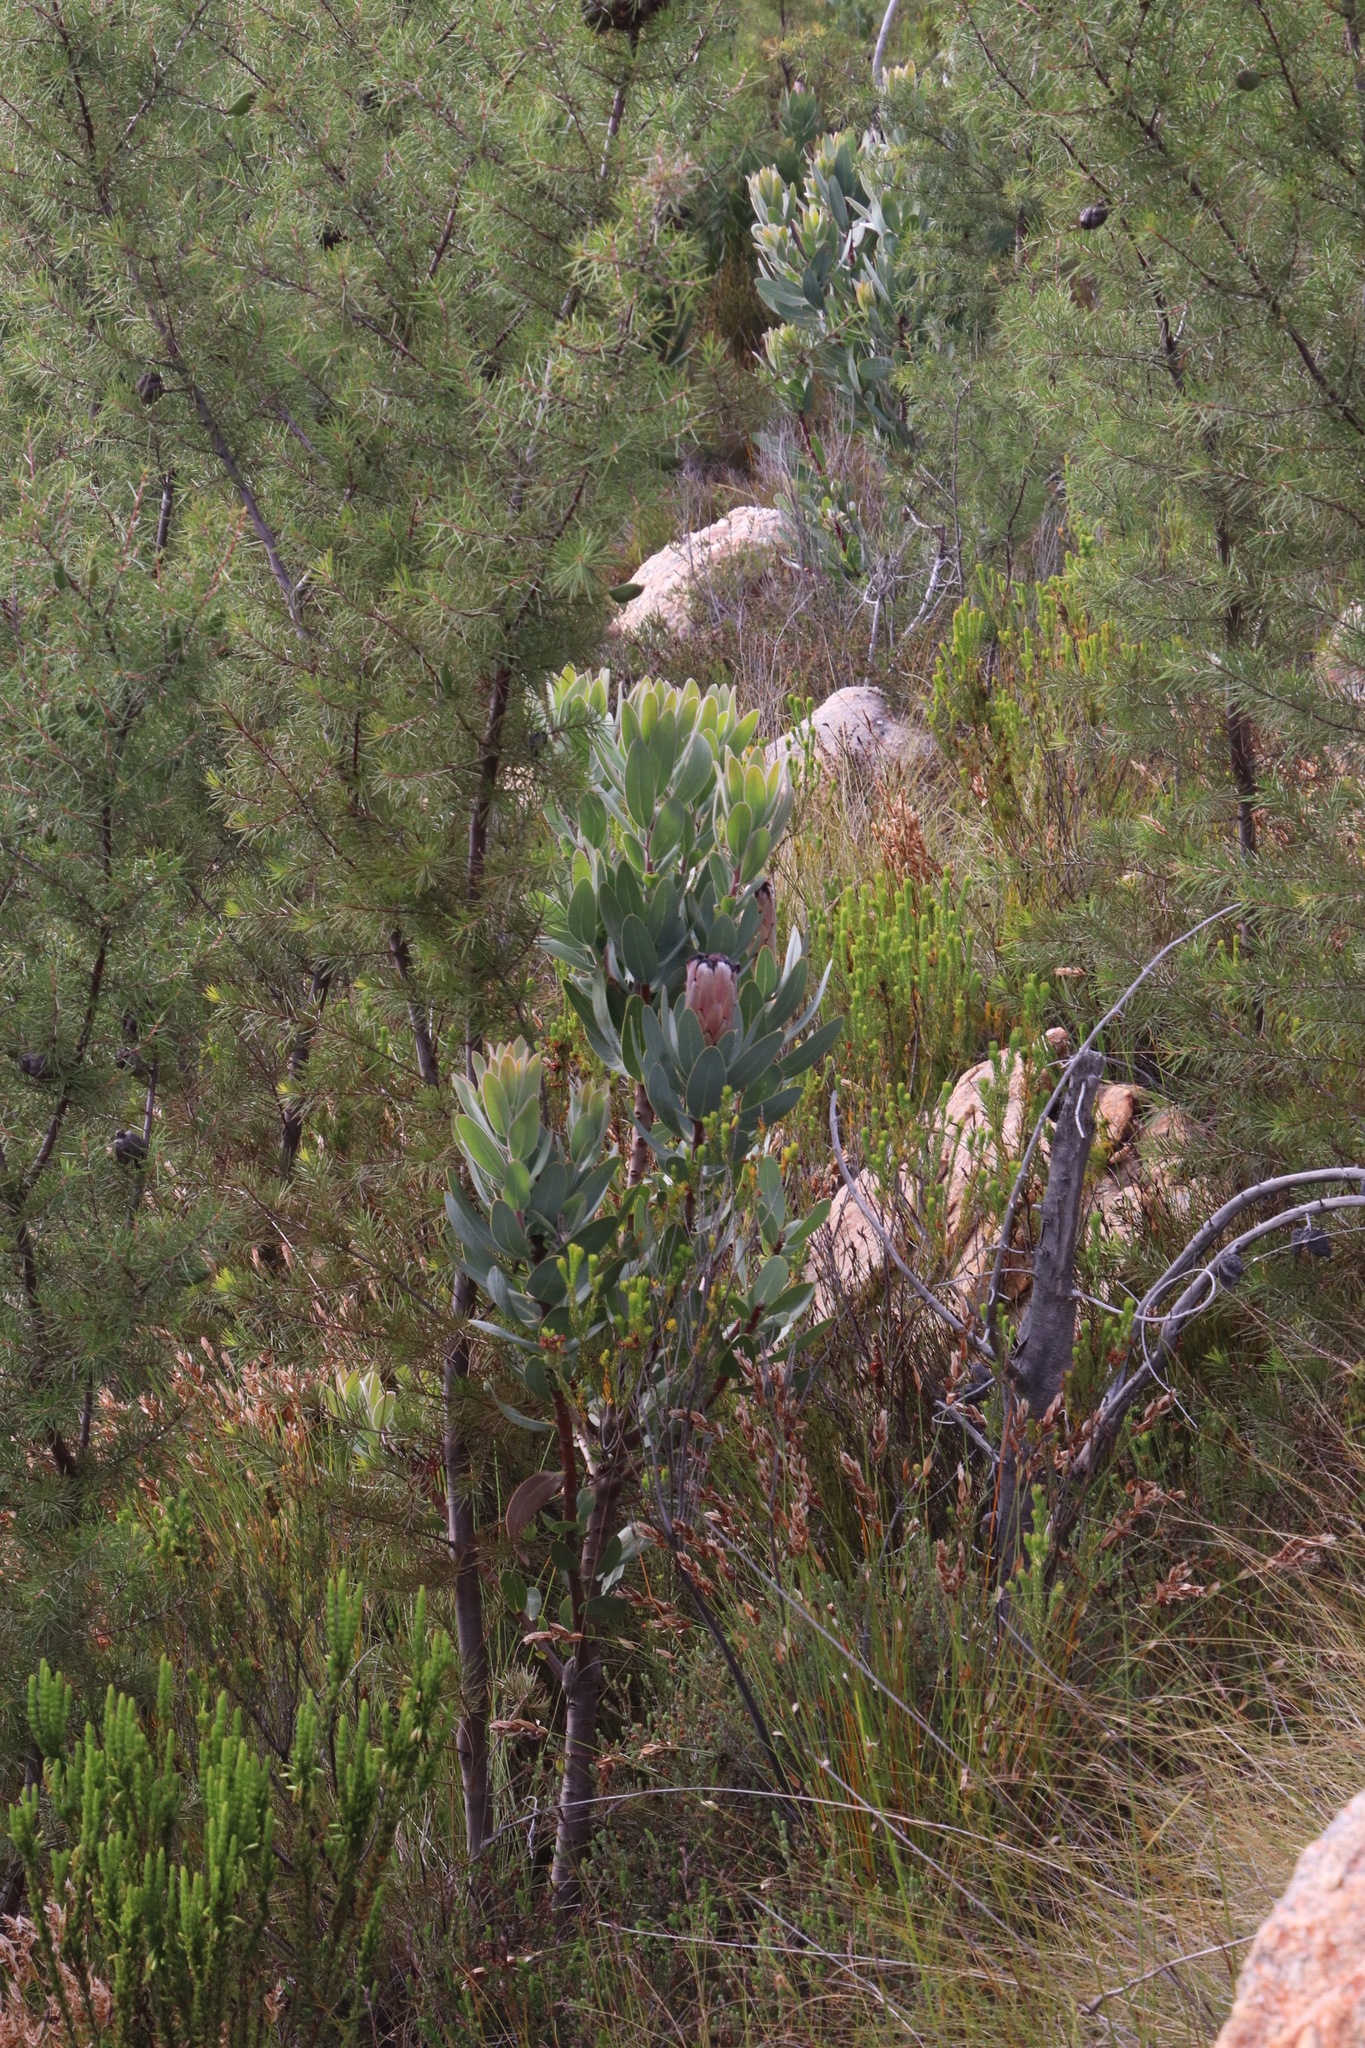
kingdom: Plantae
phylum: Tracheophyta
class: Magnoliopsida
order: Proteales
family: Proteaceae
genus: Protea
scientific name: Protea laurifolia
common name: Grey-leaf sugarbsh
